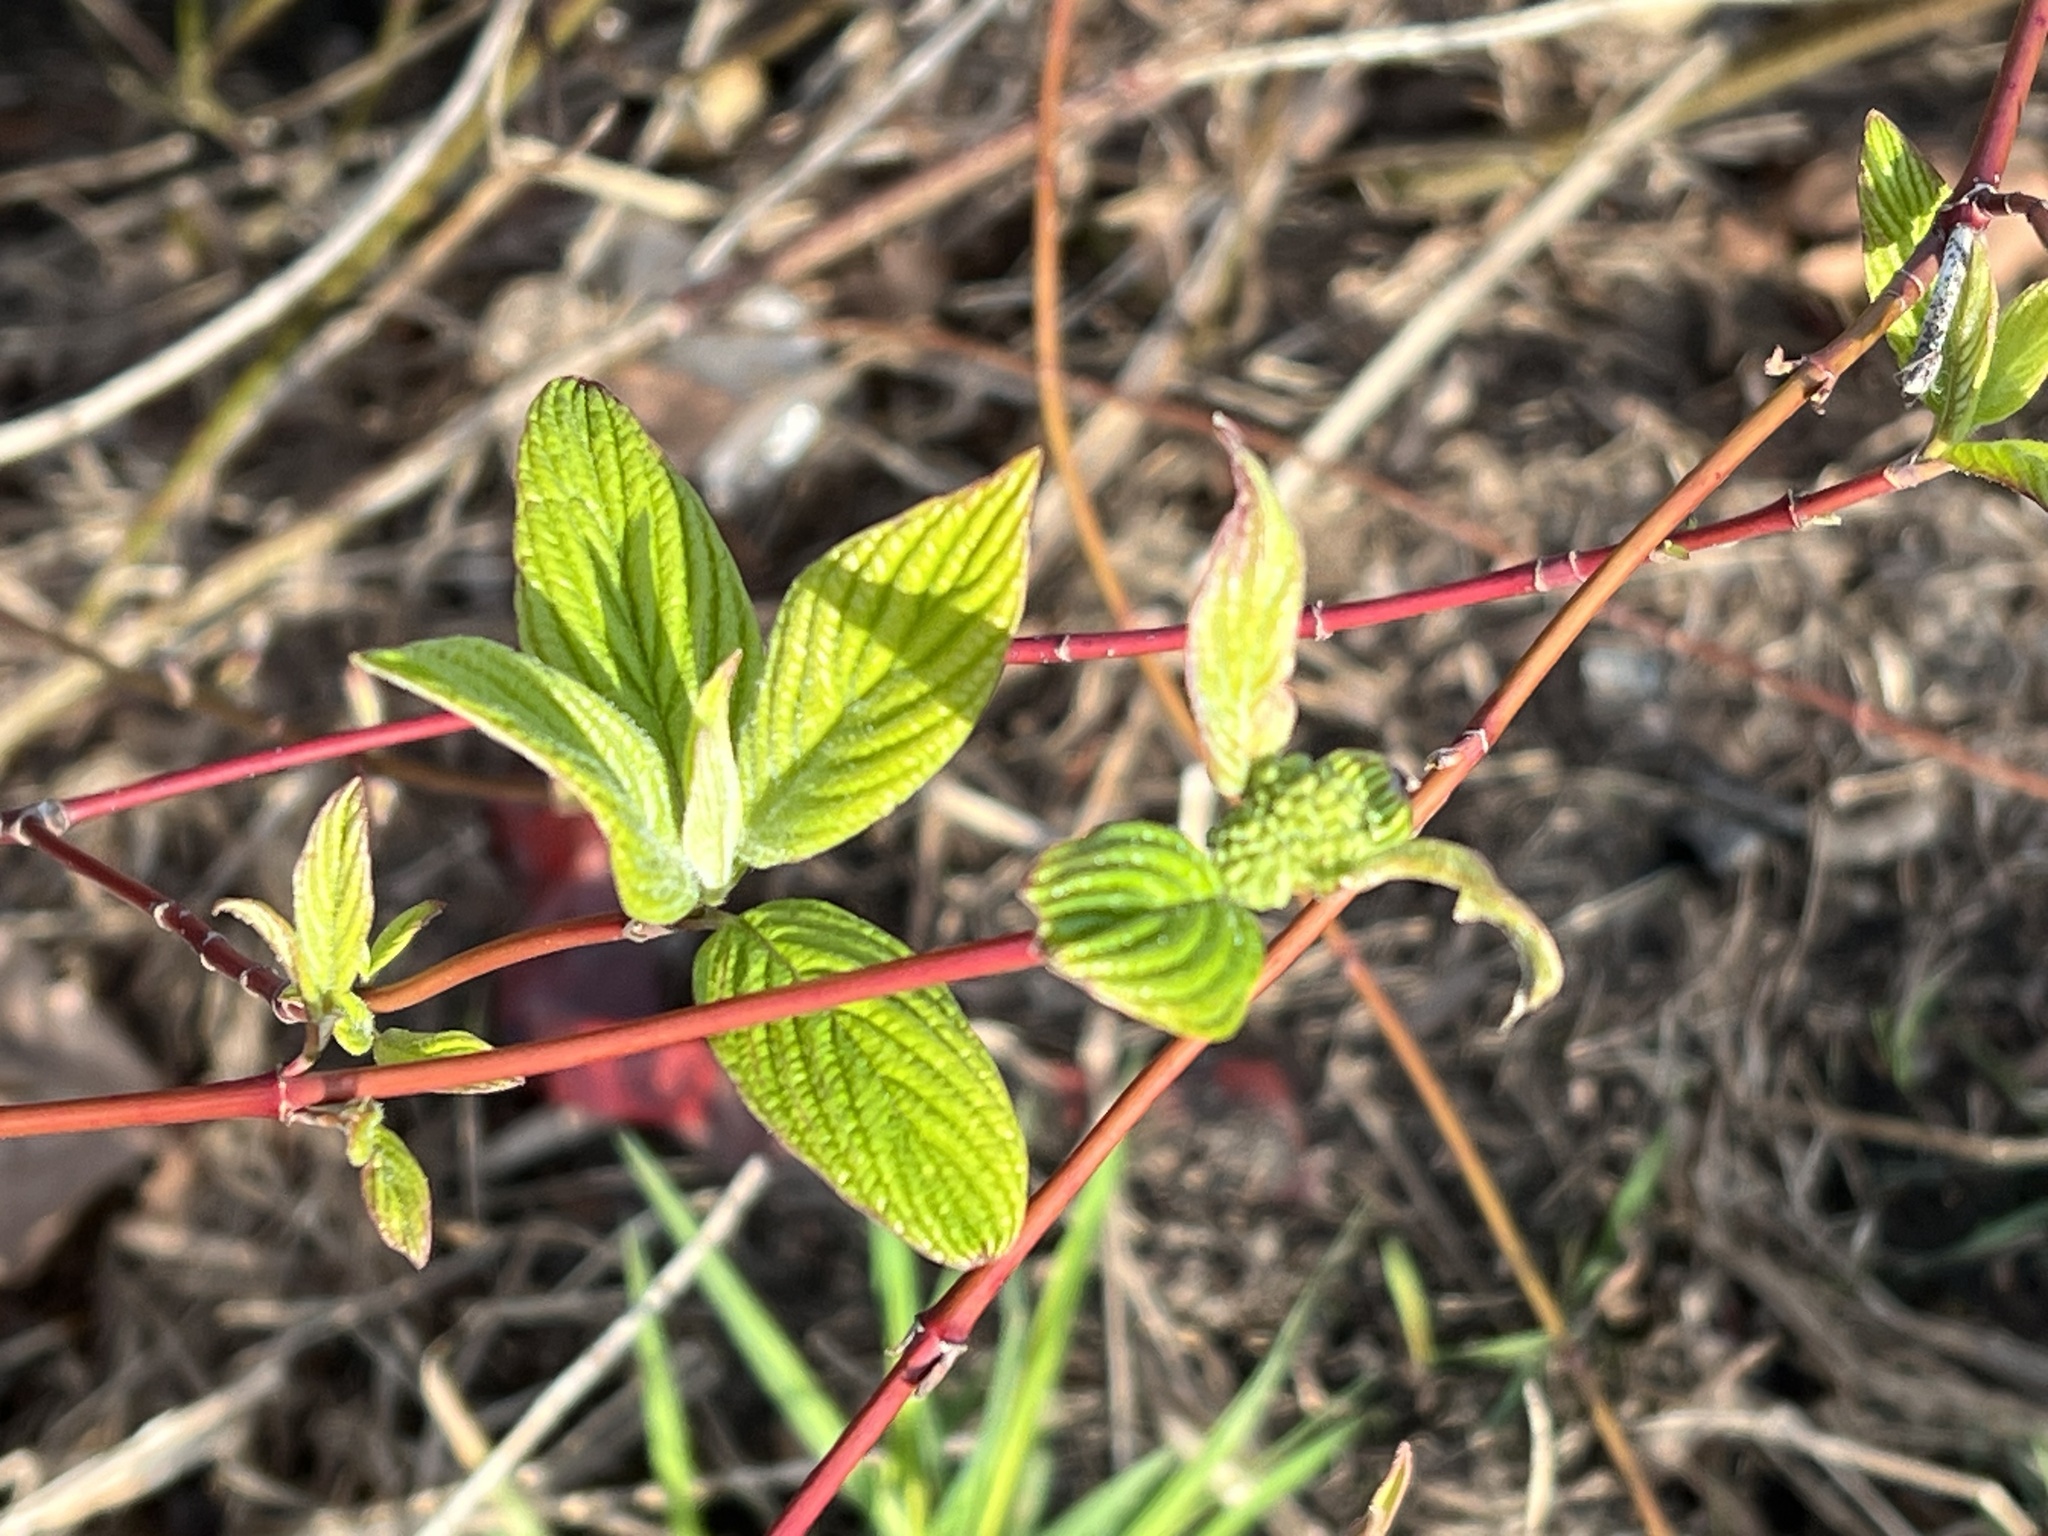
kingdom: Plantae
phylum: Tracheophyta
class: Magnoliopsida
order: Cornales
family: Cornaceae
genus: Cornus
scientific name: Cornus sericea
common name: Red-osier dogwood
